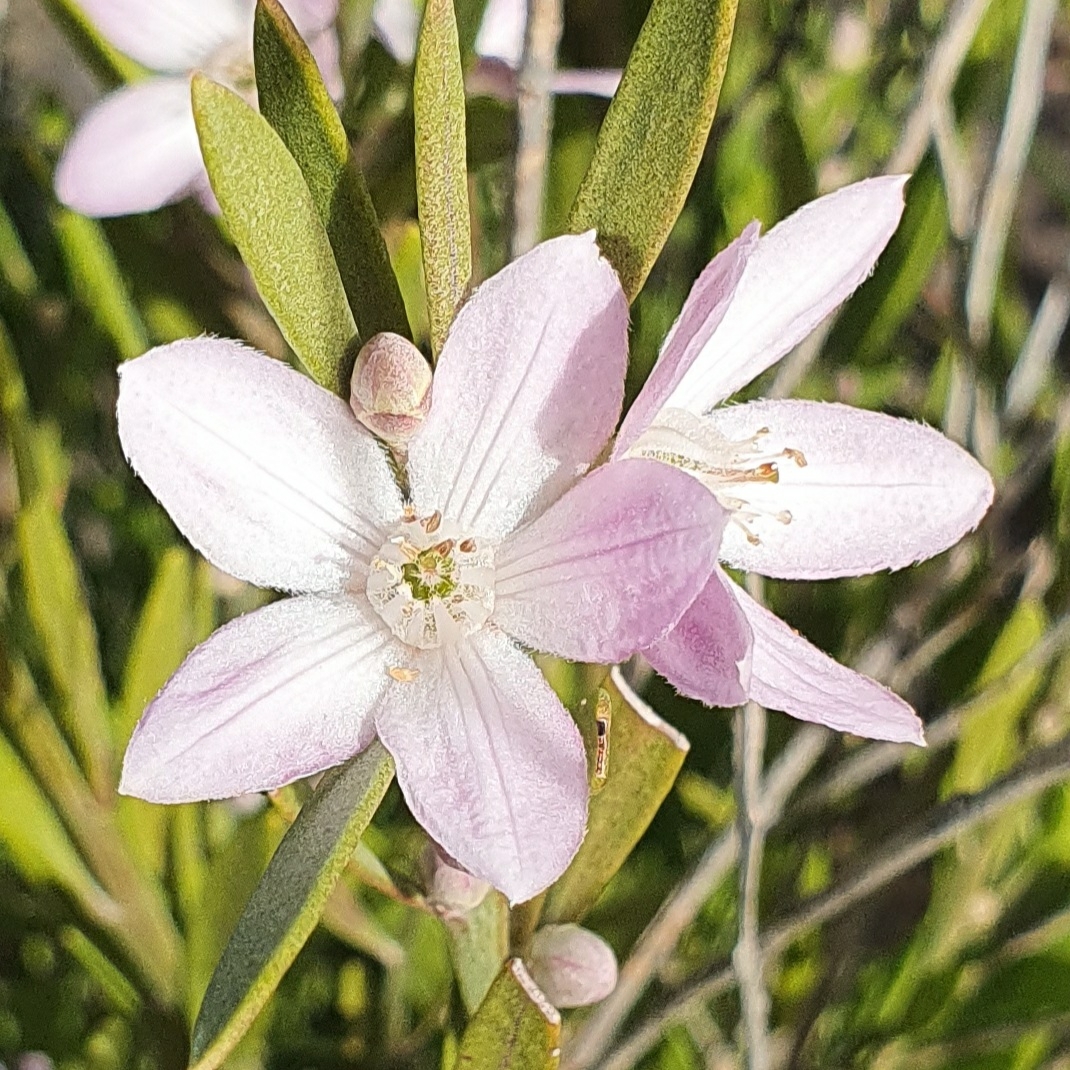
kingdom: Plantae
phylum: Tracheophyta
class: Magnoliopsida
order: Sapindales
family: Rutaceae
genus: Eriostemon
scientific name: Eriostemon australasius
